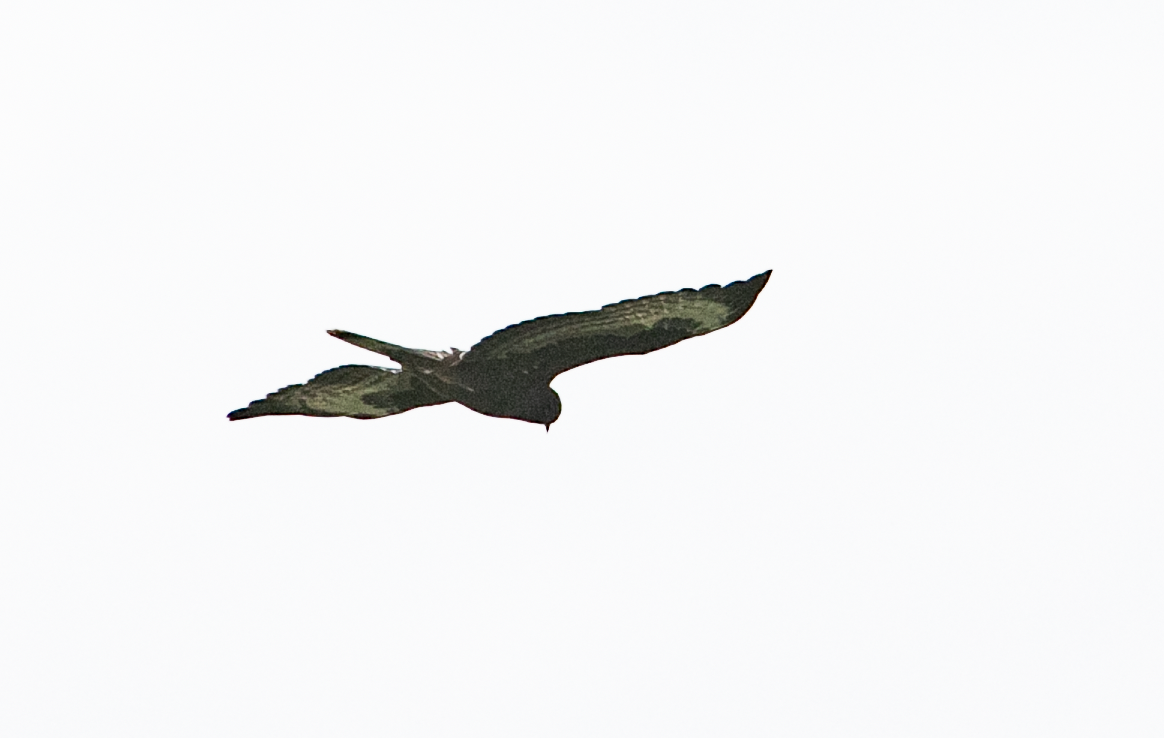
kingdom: Animalia
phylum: Chordata
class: Aves
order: Accipitriformes
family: Accipitridae
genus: Buteo
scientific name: Buteo buteo
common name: Common buzzard
